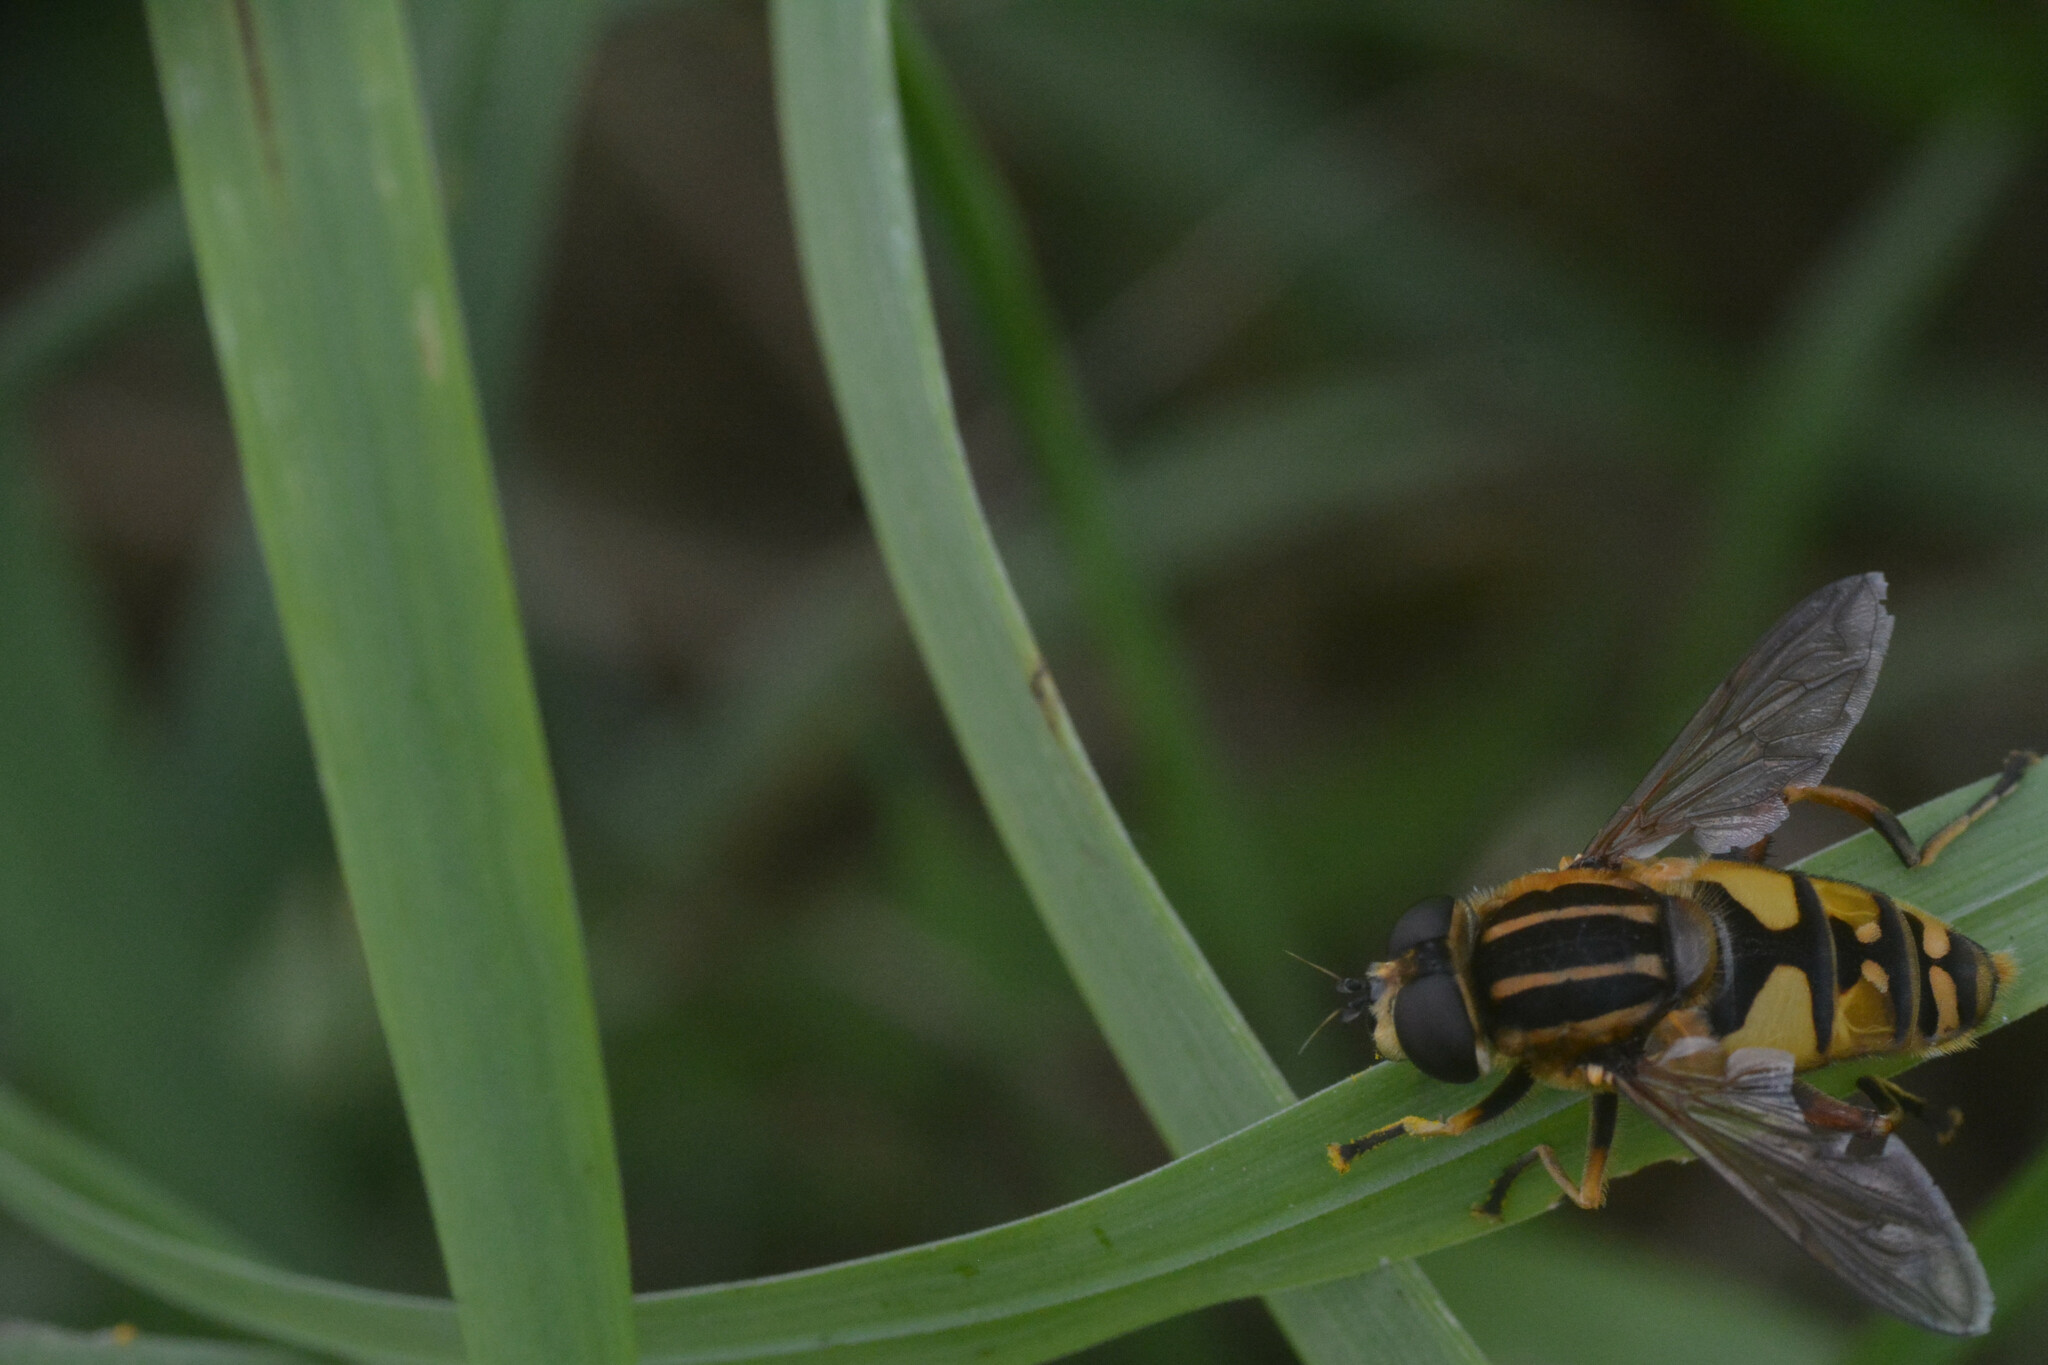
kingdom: Animalia
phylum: Arthropoda
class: Insecta
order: Diptera
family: Syrphidae
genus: Helophilus
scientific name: Helophilus pendulus
